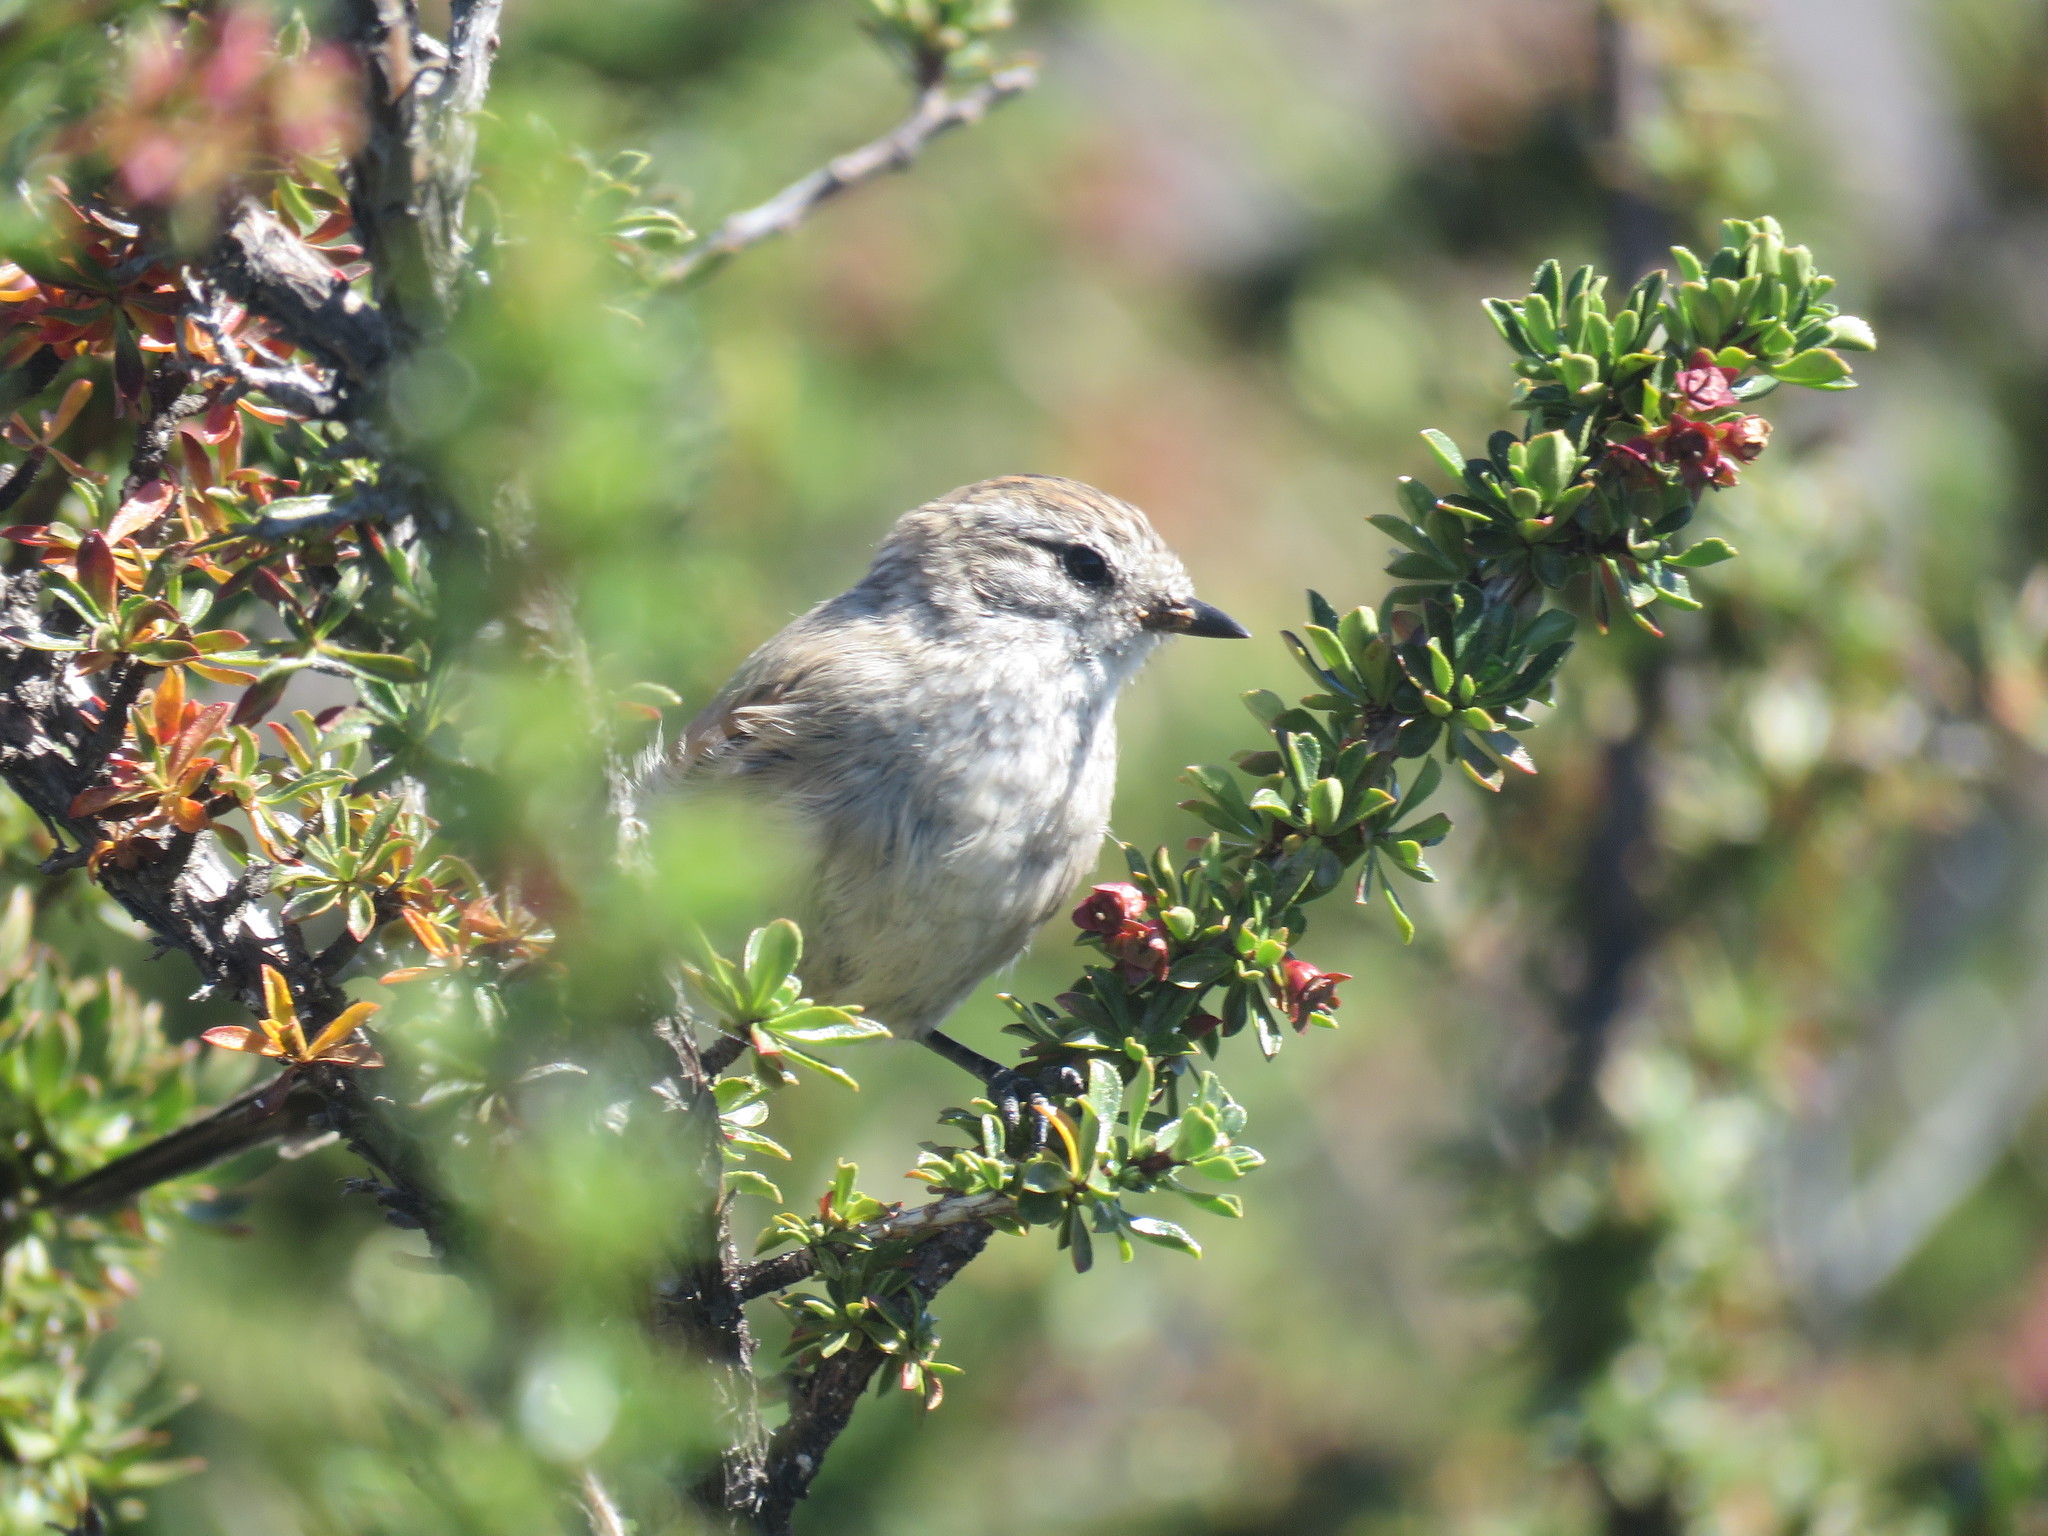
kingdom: Animalia
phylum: Chordata
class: Aves
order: Passeriformes
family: Furnariidae
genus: Leptasthenura
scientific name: Leptasthenura aegithaloides
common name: Plain-mantled tit-spinetail
